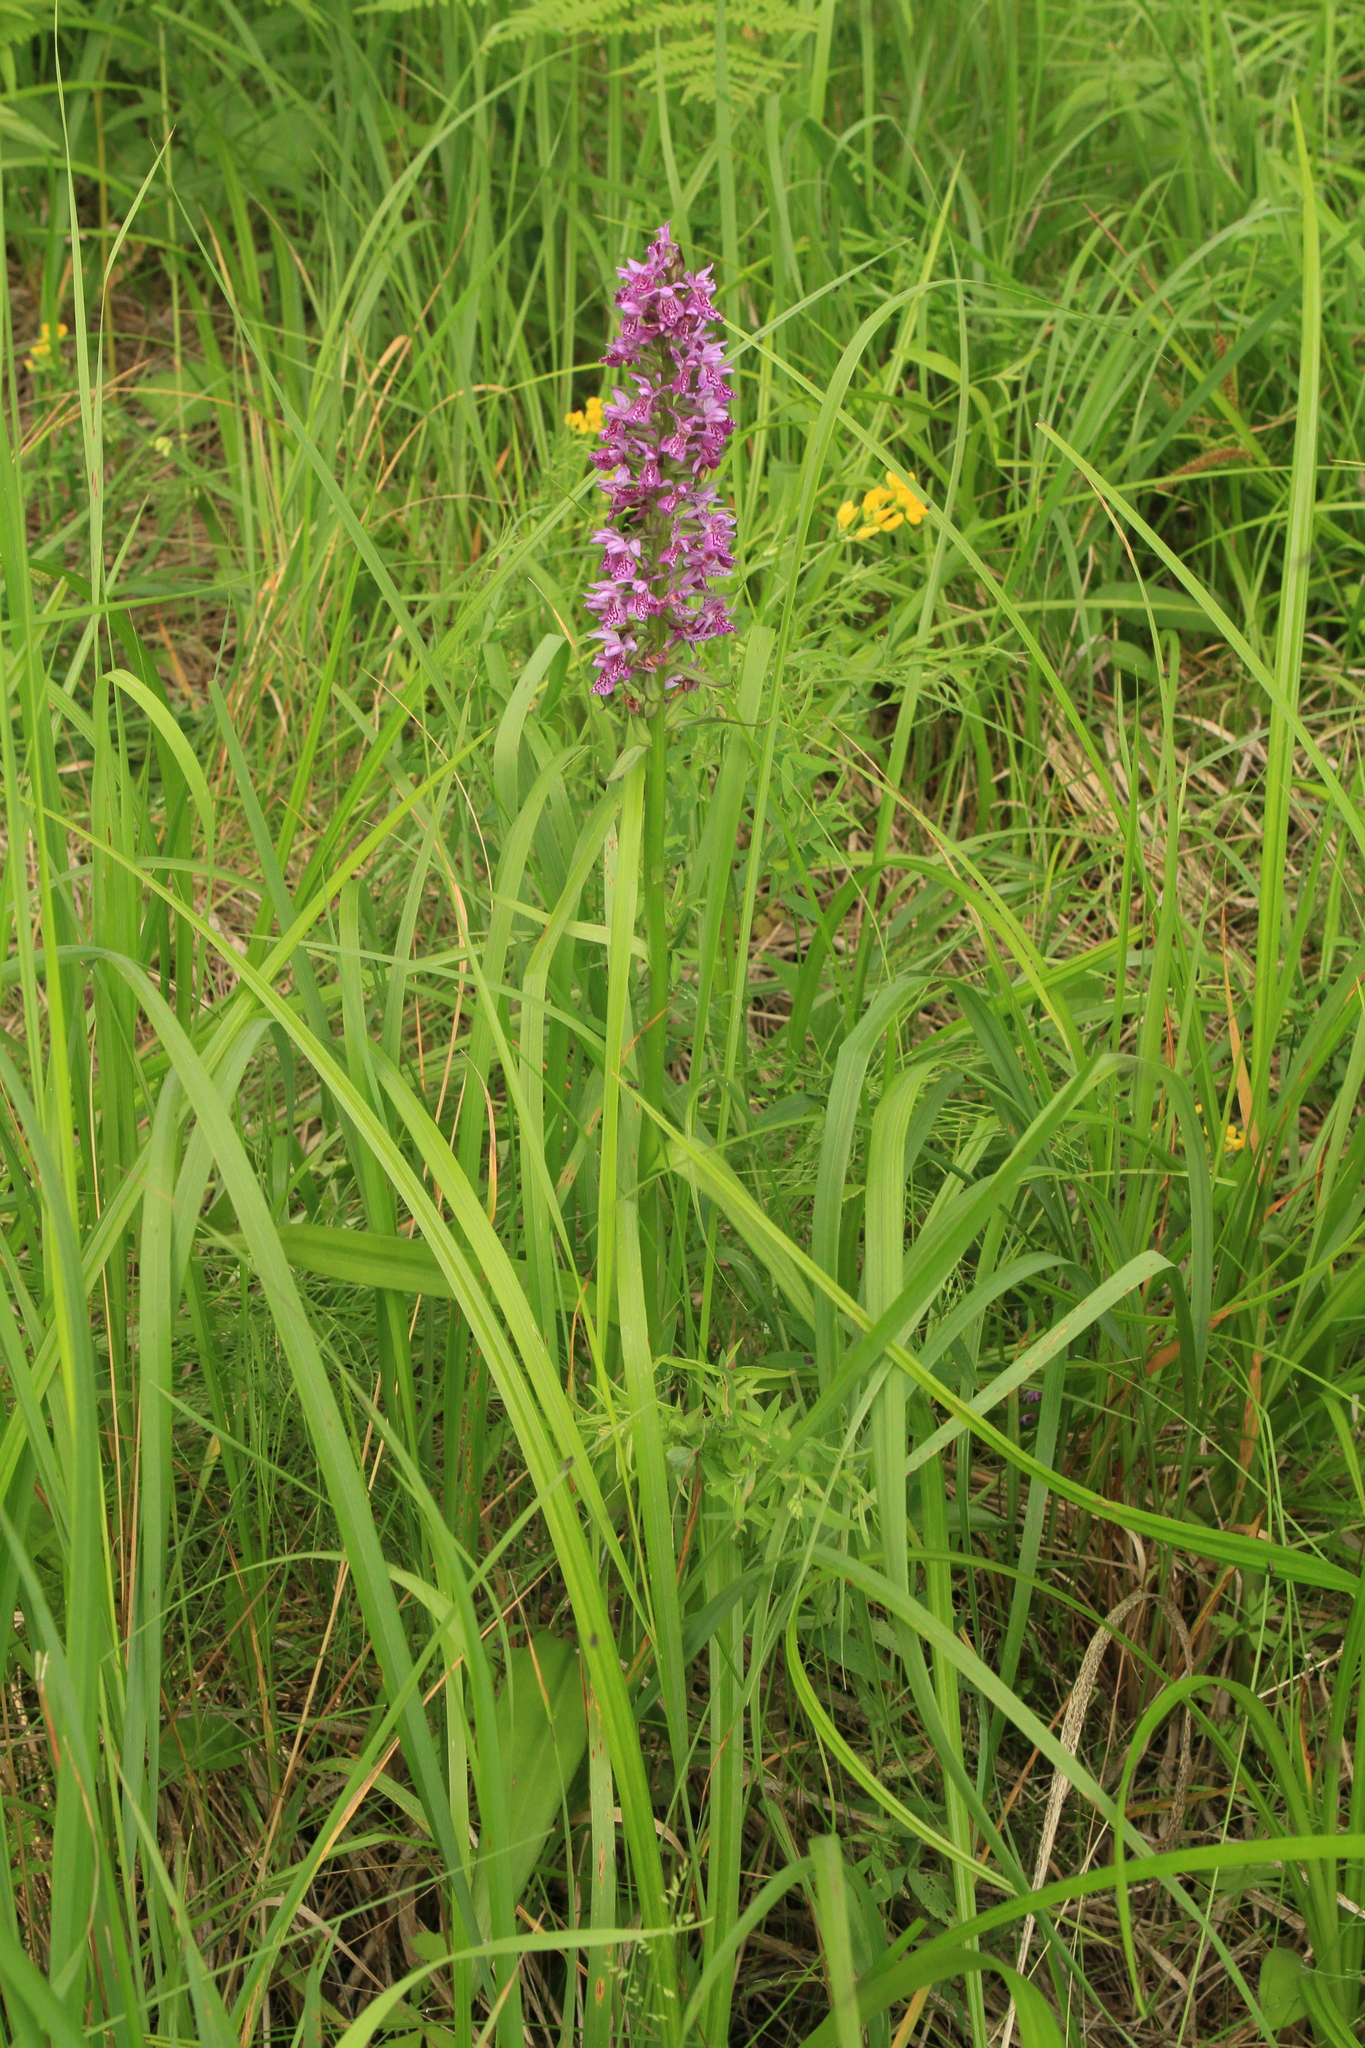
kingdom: Plantae
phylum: Tracheophyta
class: Liliopsida
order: Asparagales
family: Orchidaceae
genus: Dactylorhiza
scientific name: Dactylorhiza sibirica
